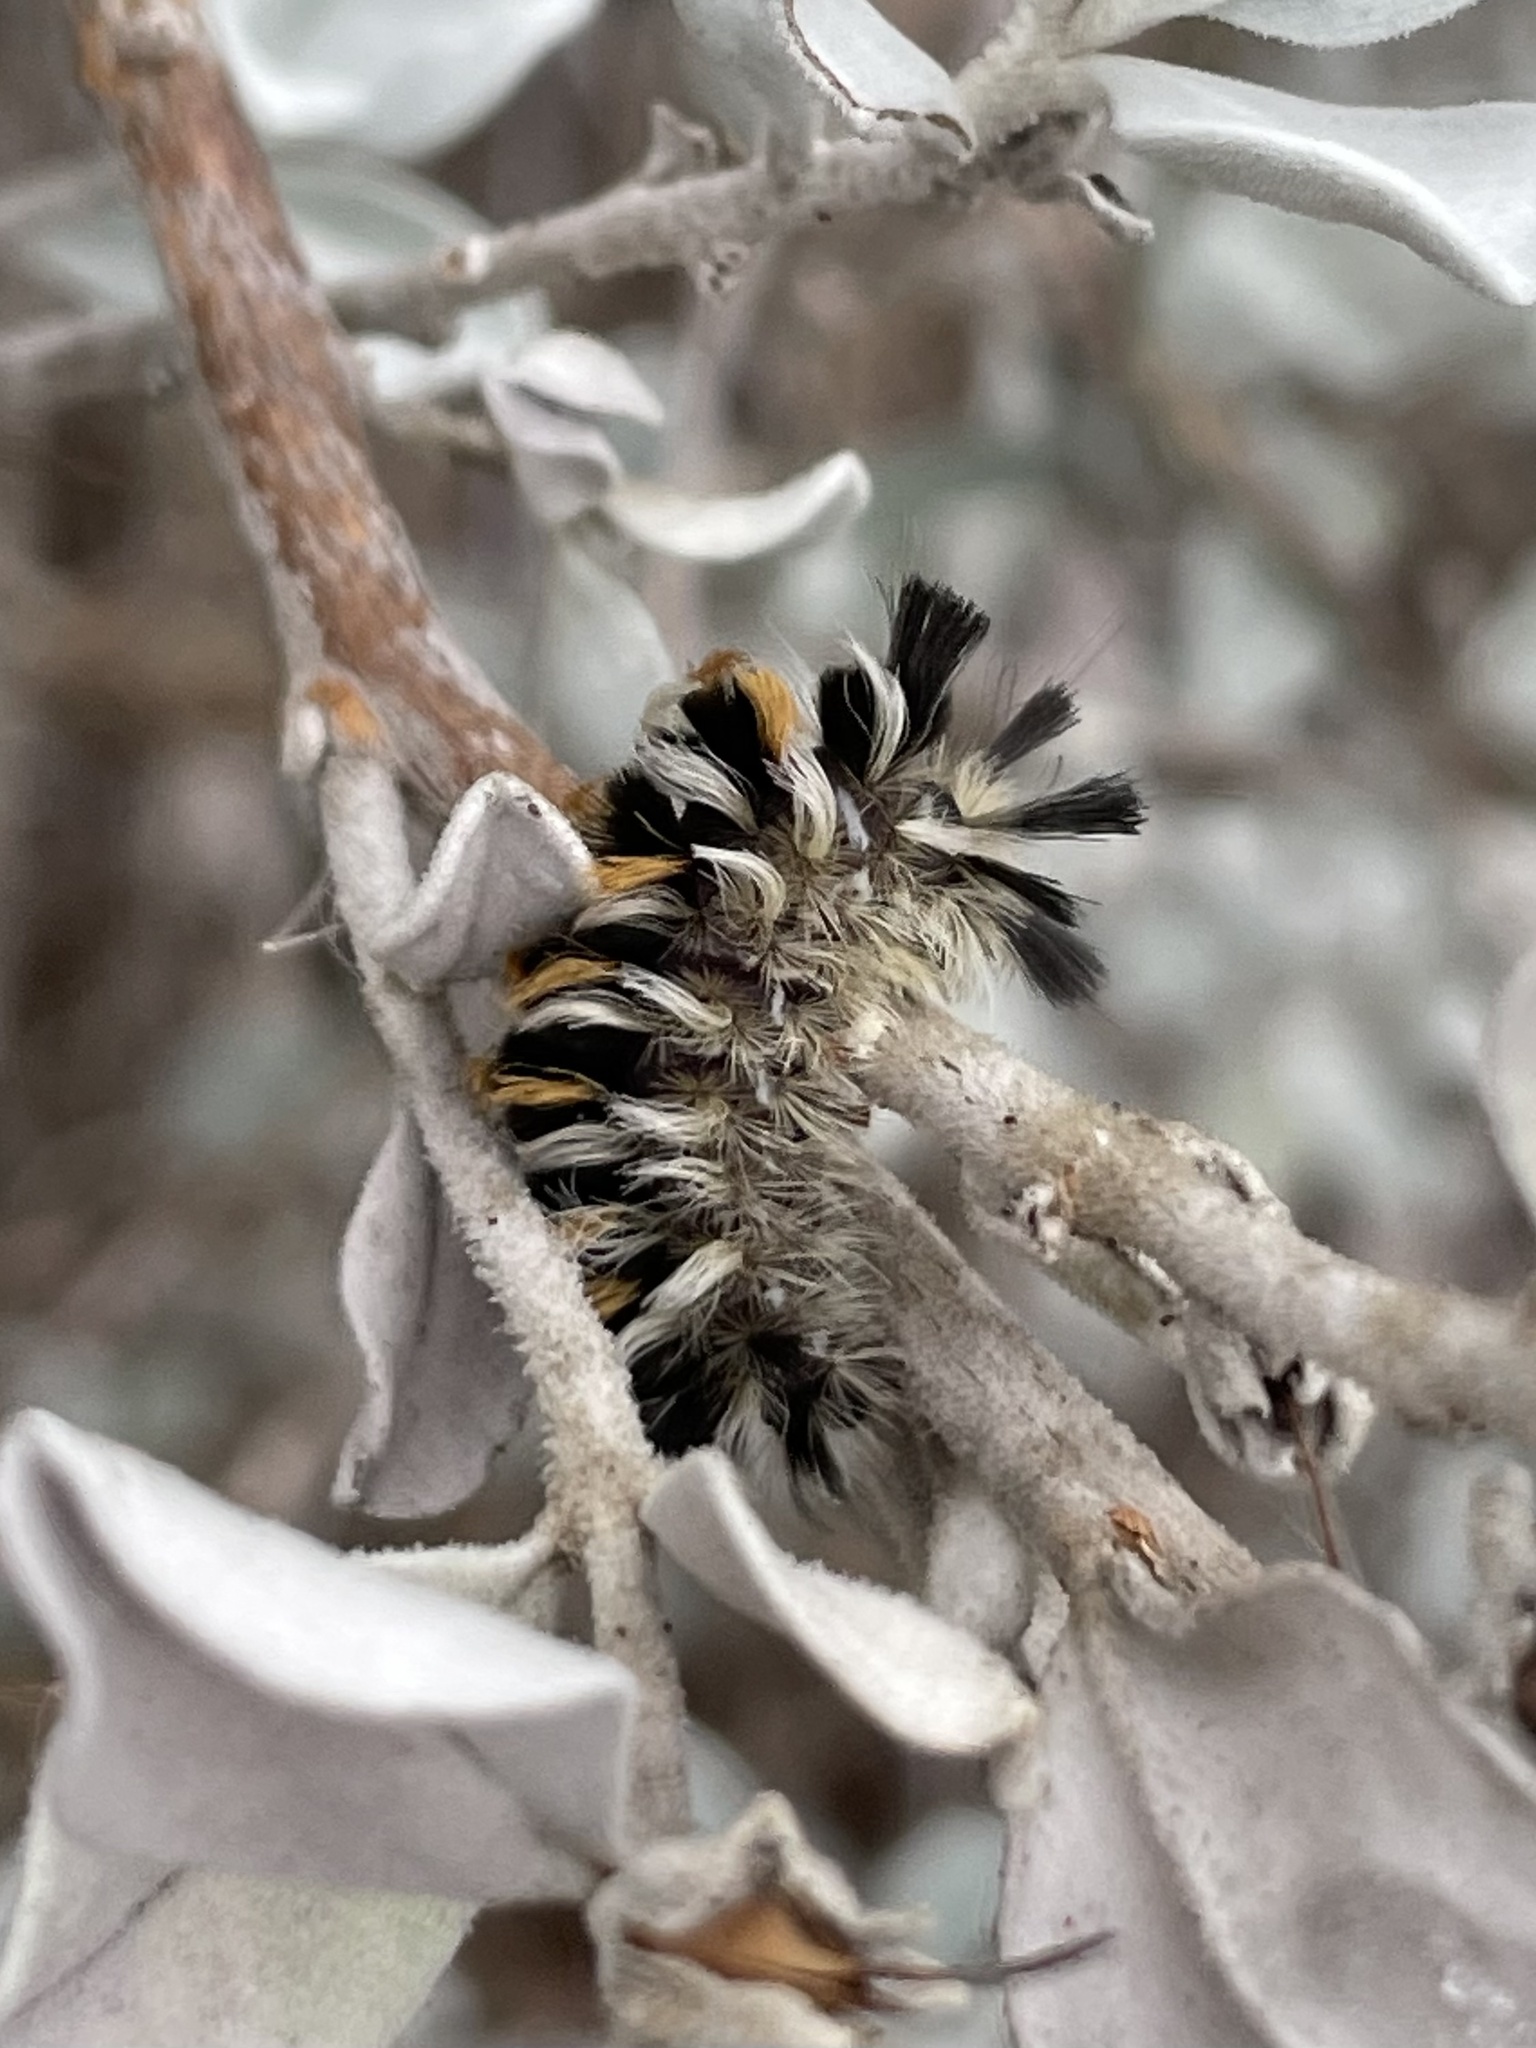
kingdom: Animalia
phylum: Arthropoda
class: Insecta
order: Lepidoptera
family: Erebidae
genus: Euchaetes
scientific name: Euchaetes bolteri
